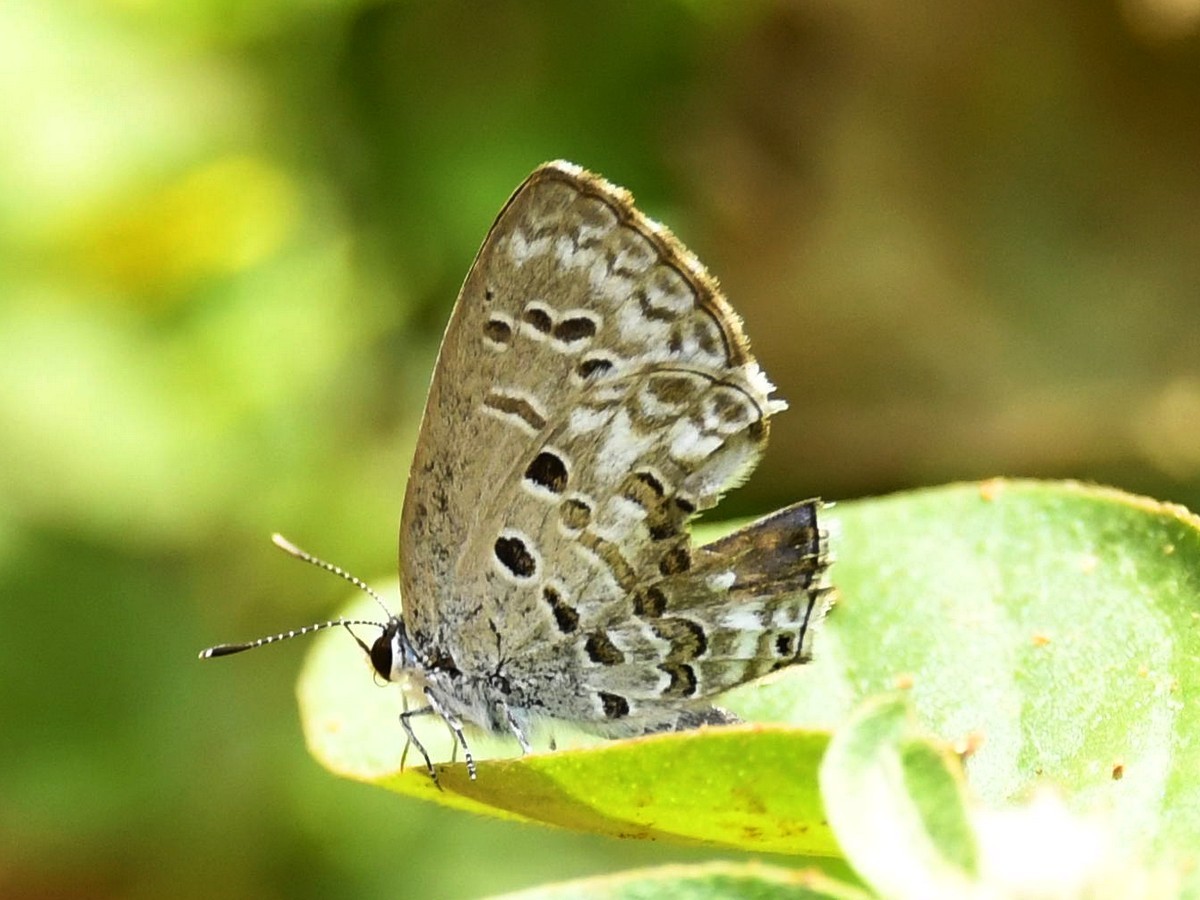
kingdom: Animalia
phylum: Arthropoda
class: Insecta
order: Lepidoptera
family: Lycaenidae
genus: Chilades
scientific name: Chilades laius
